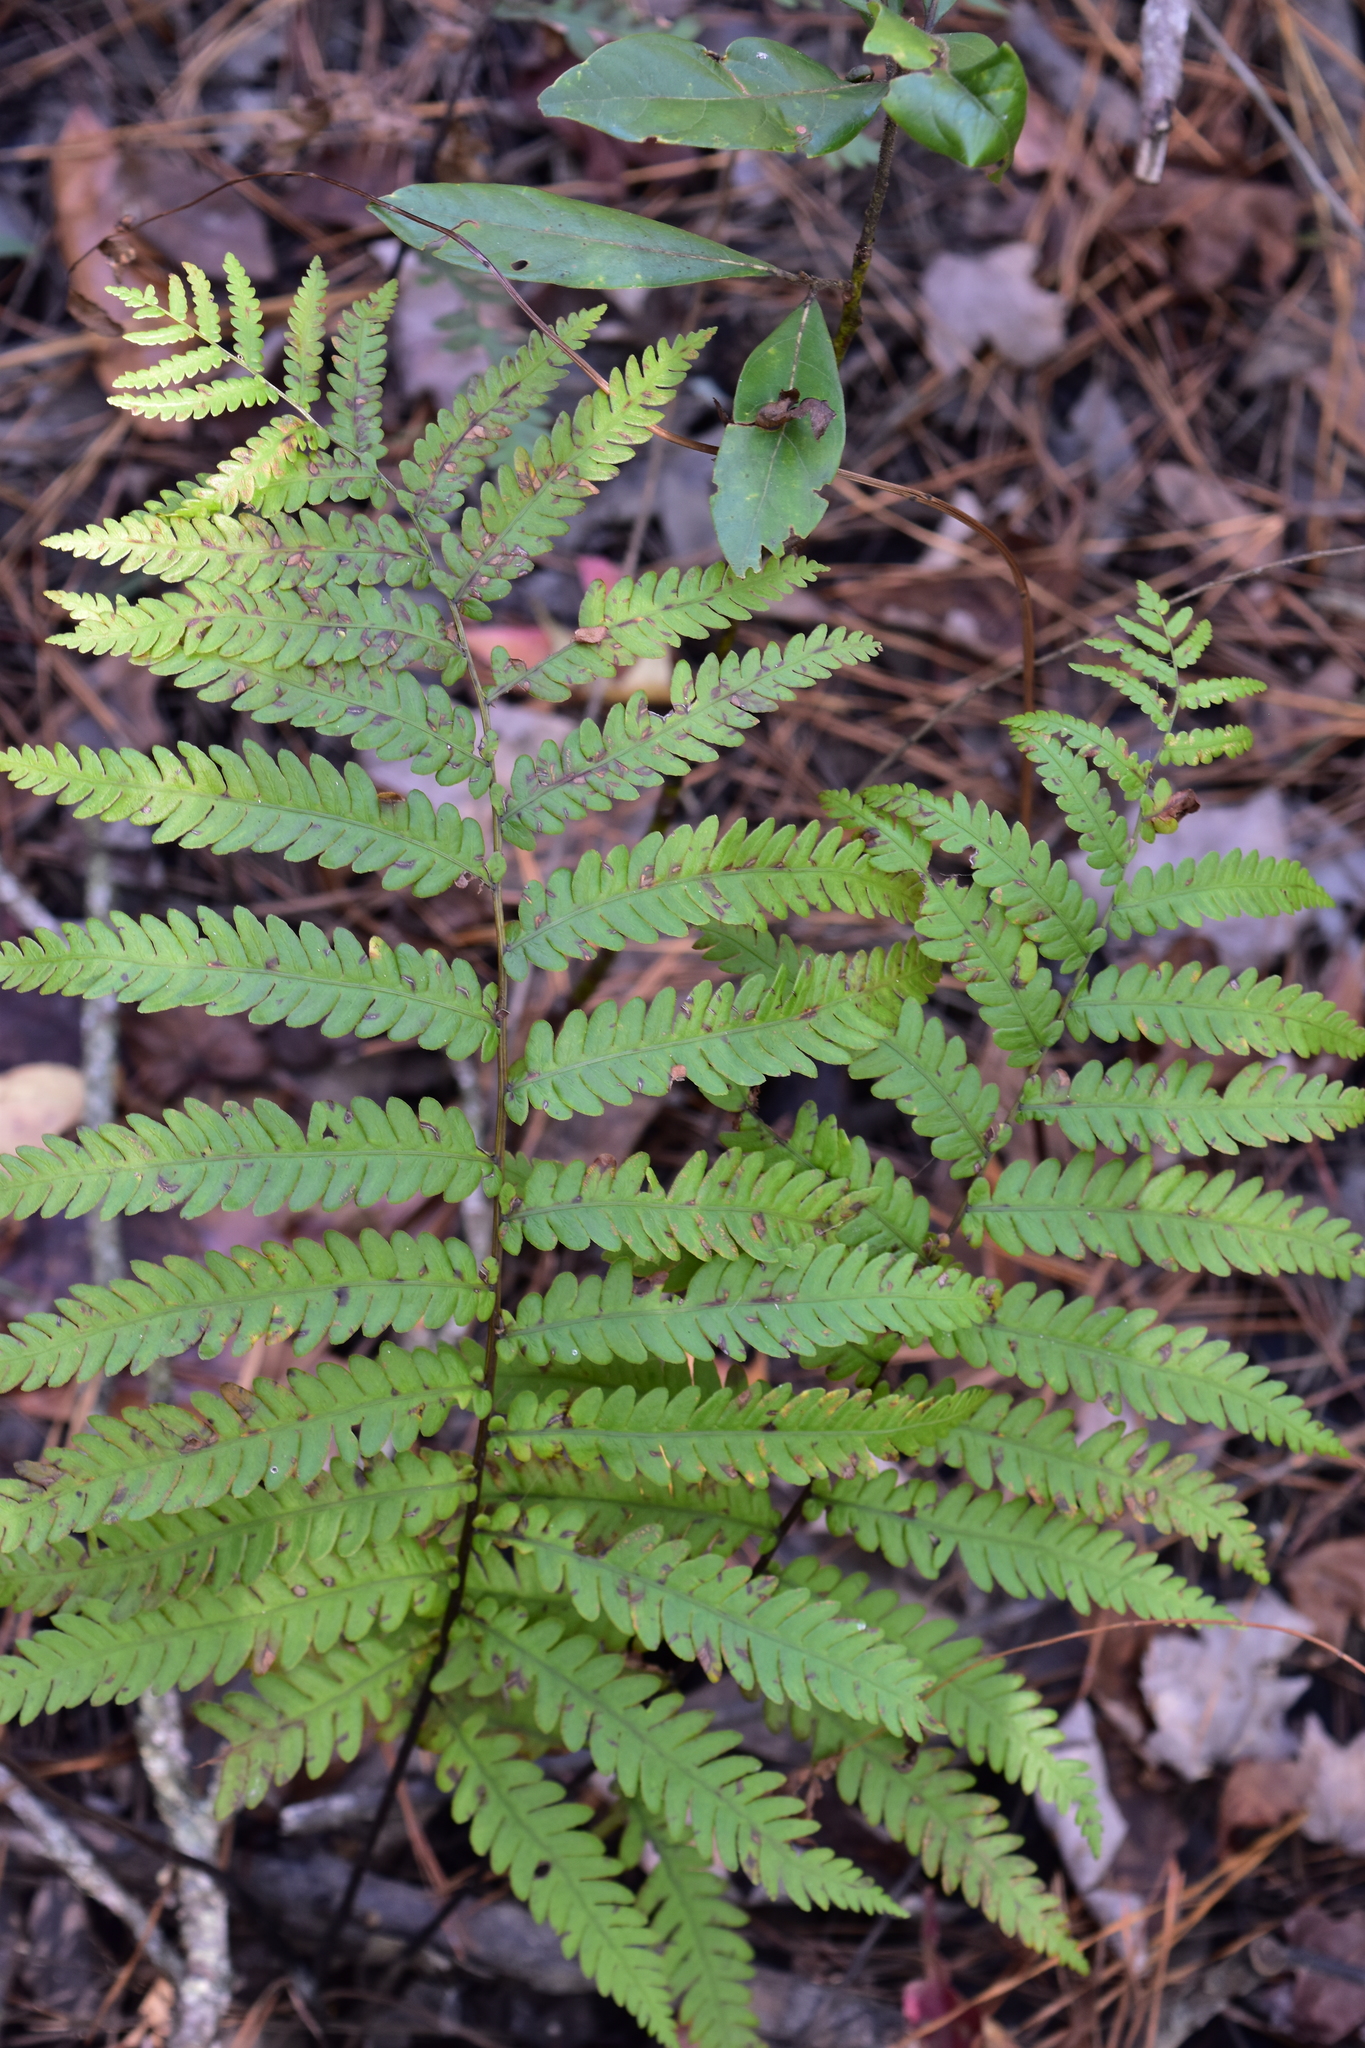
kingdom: Plantae
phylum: Tracheophyta
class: Polypodiopsida
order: Polypodiales
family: Blechnaceae
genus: Anchistea
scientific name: Anchistea virginica
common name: Virginia chain fern
